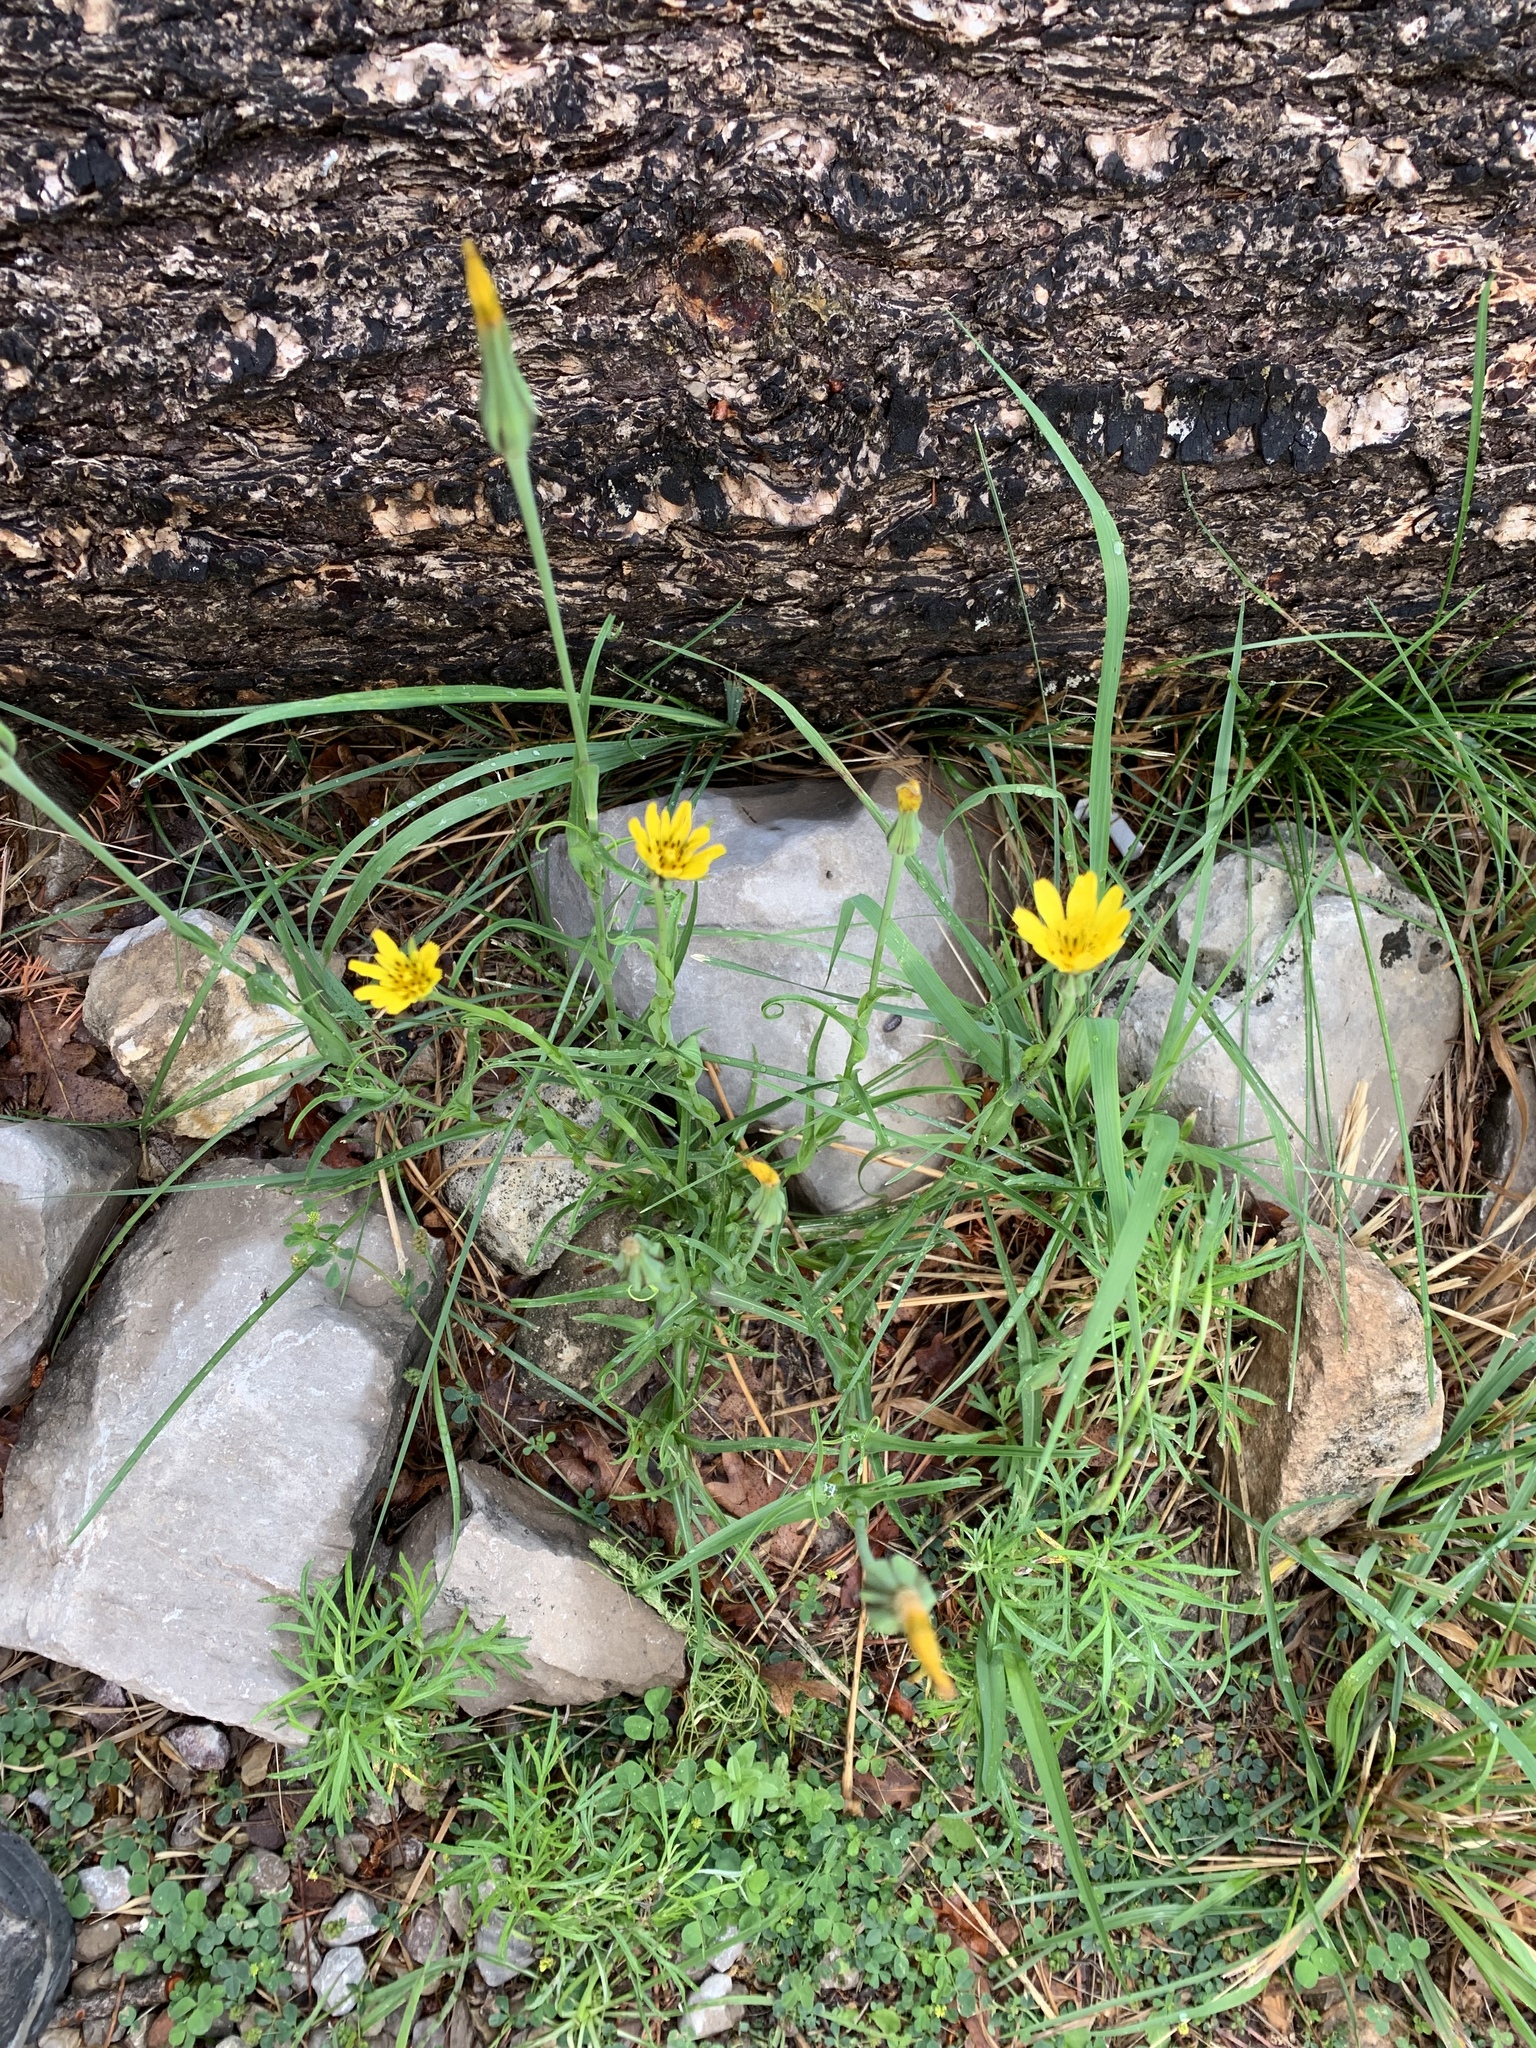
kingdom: Plantae
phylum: Tracheophyta
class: Magnoliopsida
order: Asterales
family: Asteraceae
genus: Tragopogon
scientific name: Tragopogon dubius
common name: Yellow salsify
